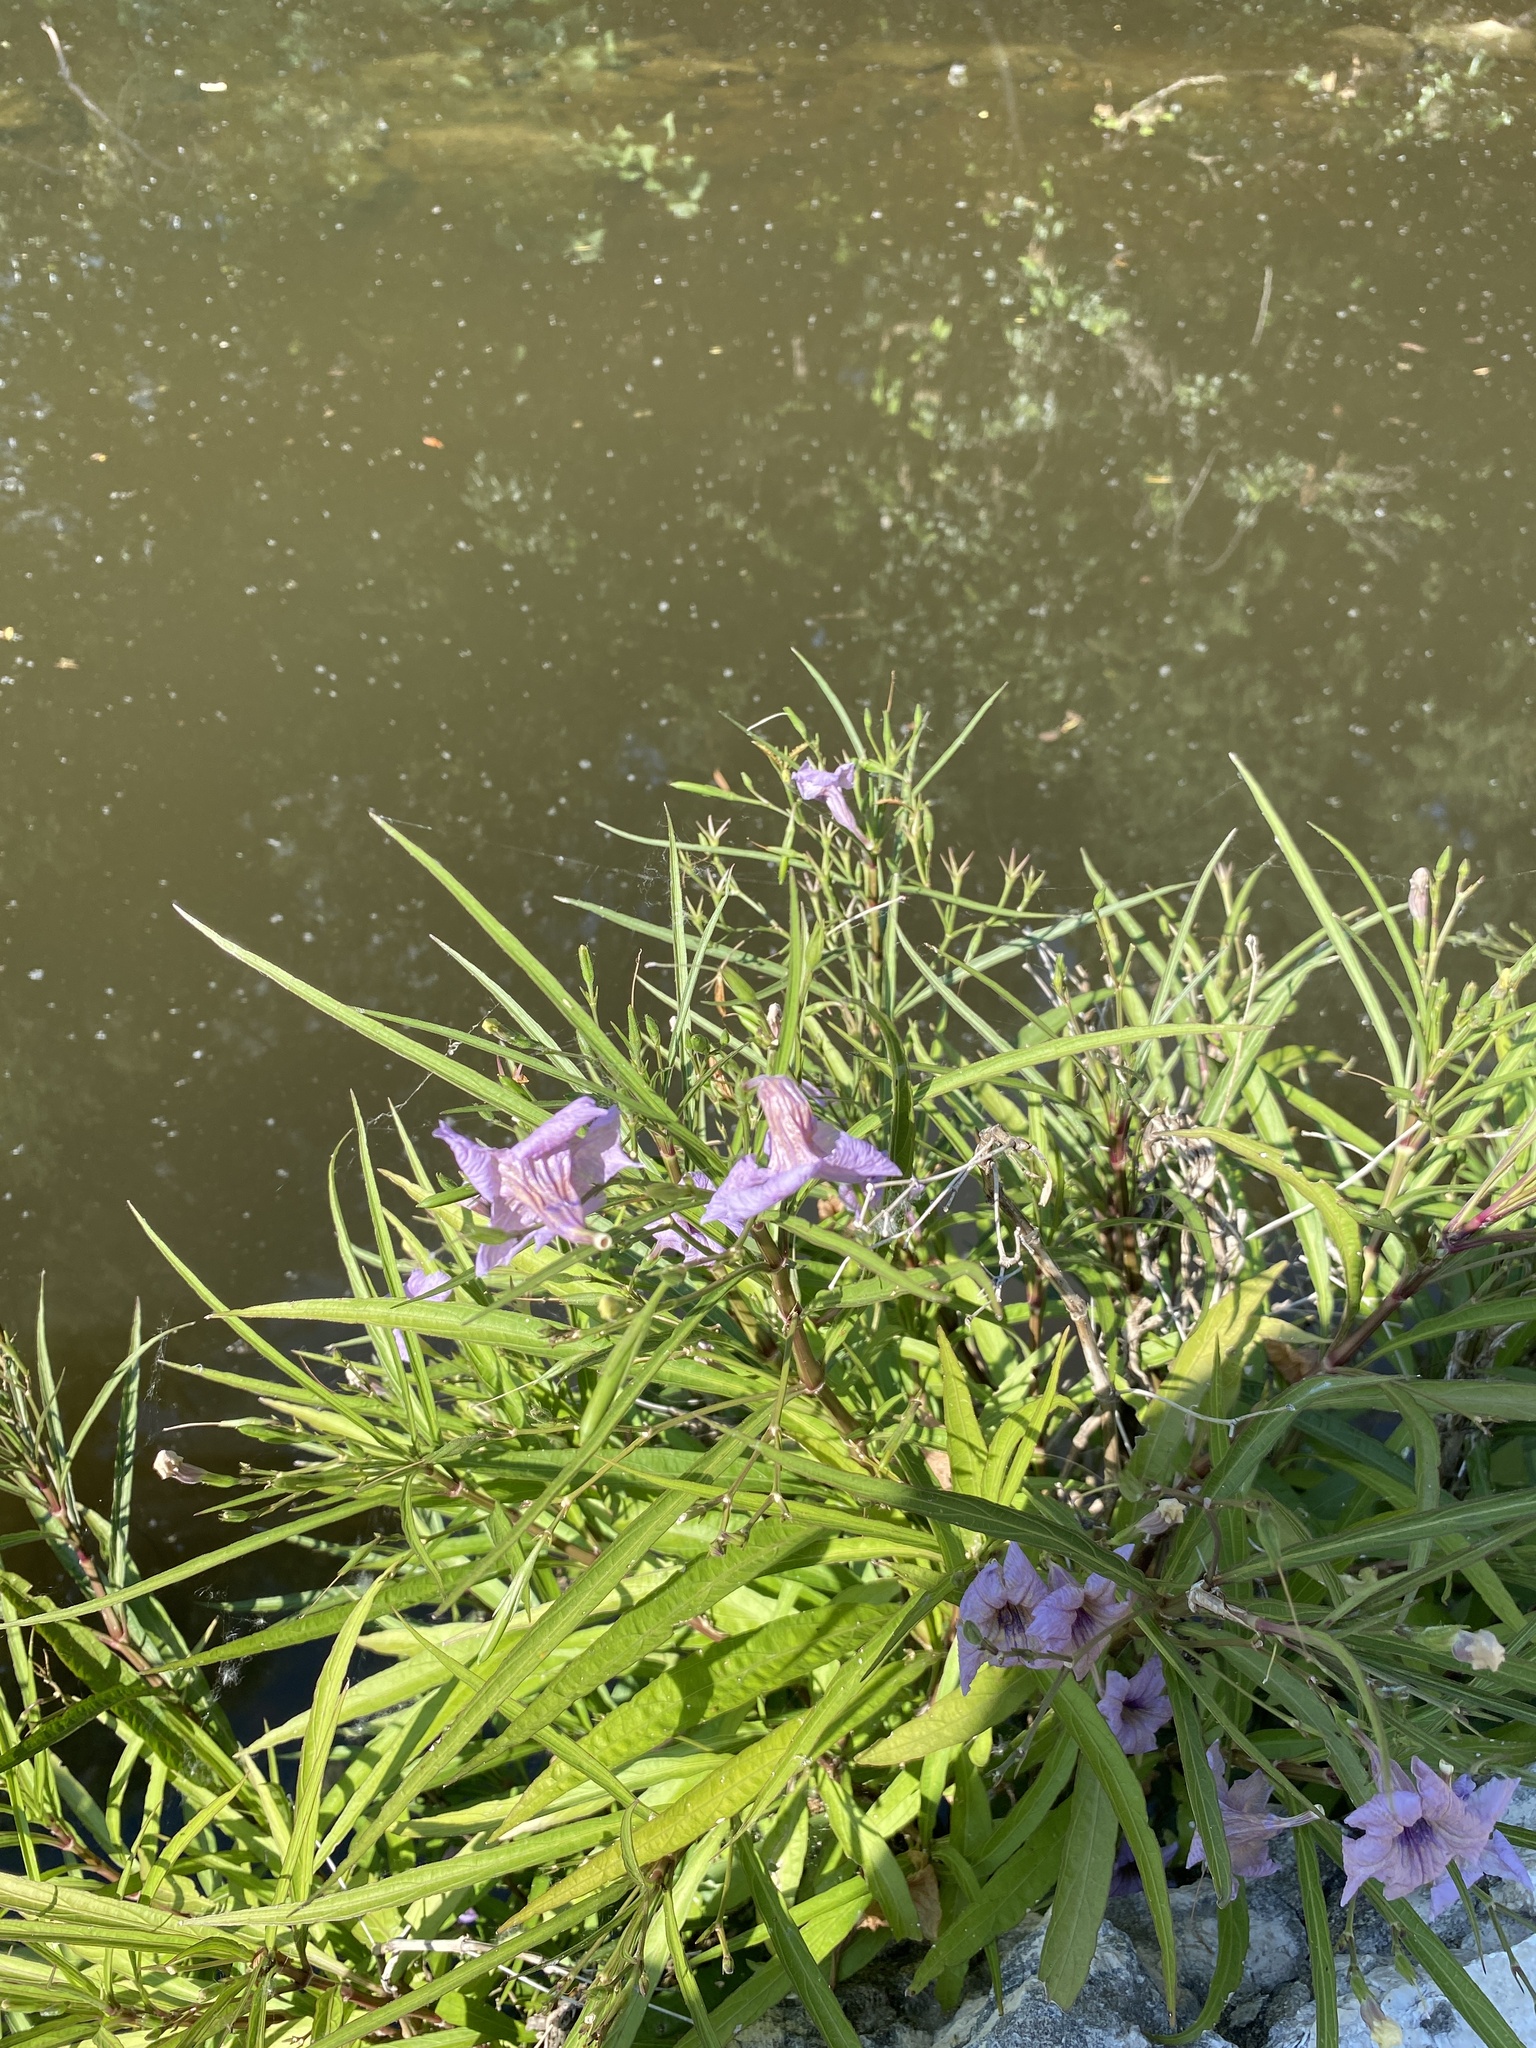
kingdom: Plantae
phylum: Tracheophyta
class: Magnoliopsida
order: Lamiales
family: Acanthaceae
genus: Ruellia
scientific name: Ruellia simplex
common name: Softseed wild petunia
